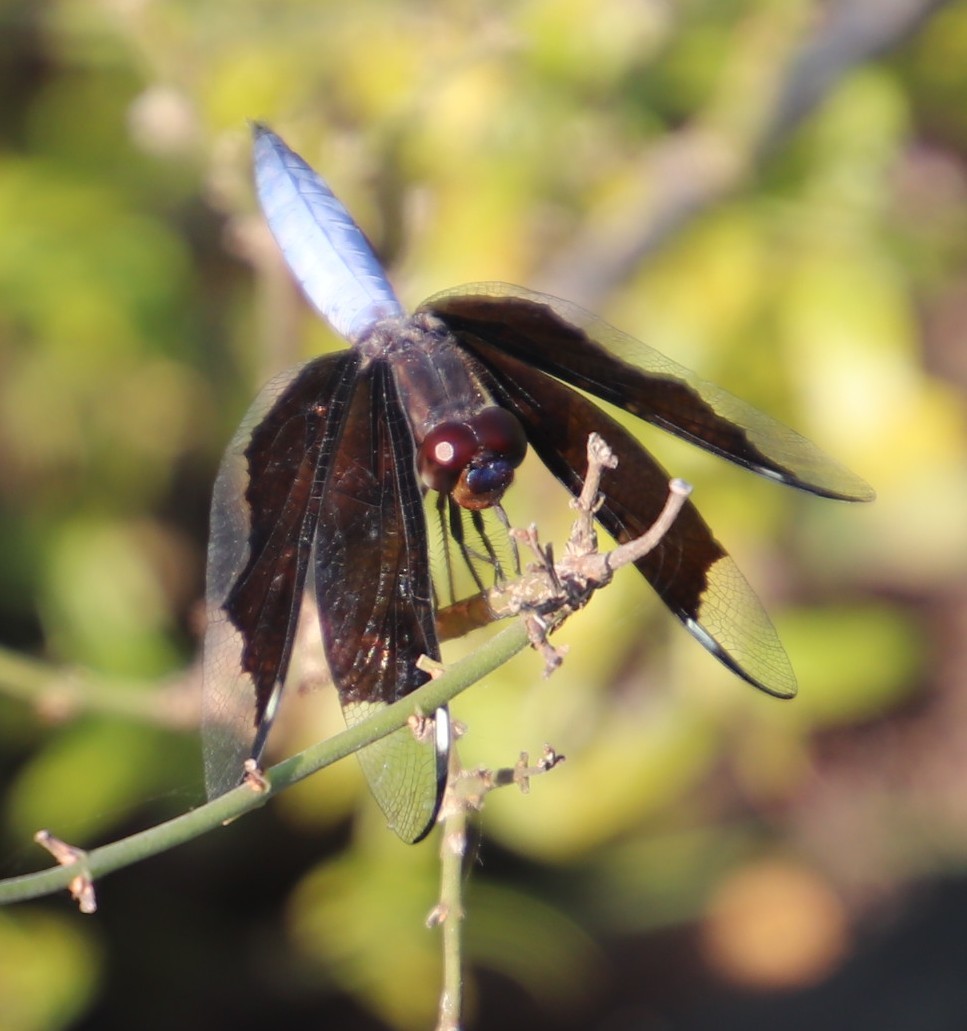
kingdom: Animalia
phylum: Arthropoda
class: Insecta
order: Odonata
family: Libellulidae
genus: Palpopleura
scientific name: Palpopleura lucia
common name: Lucia widow
